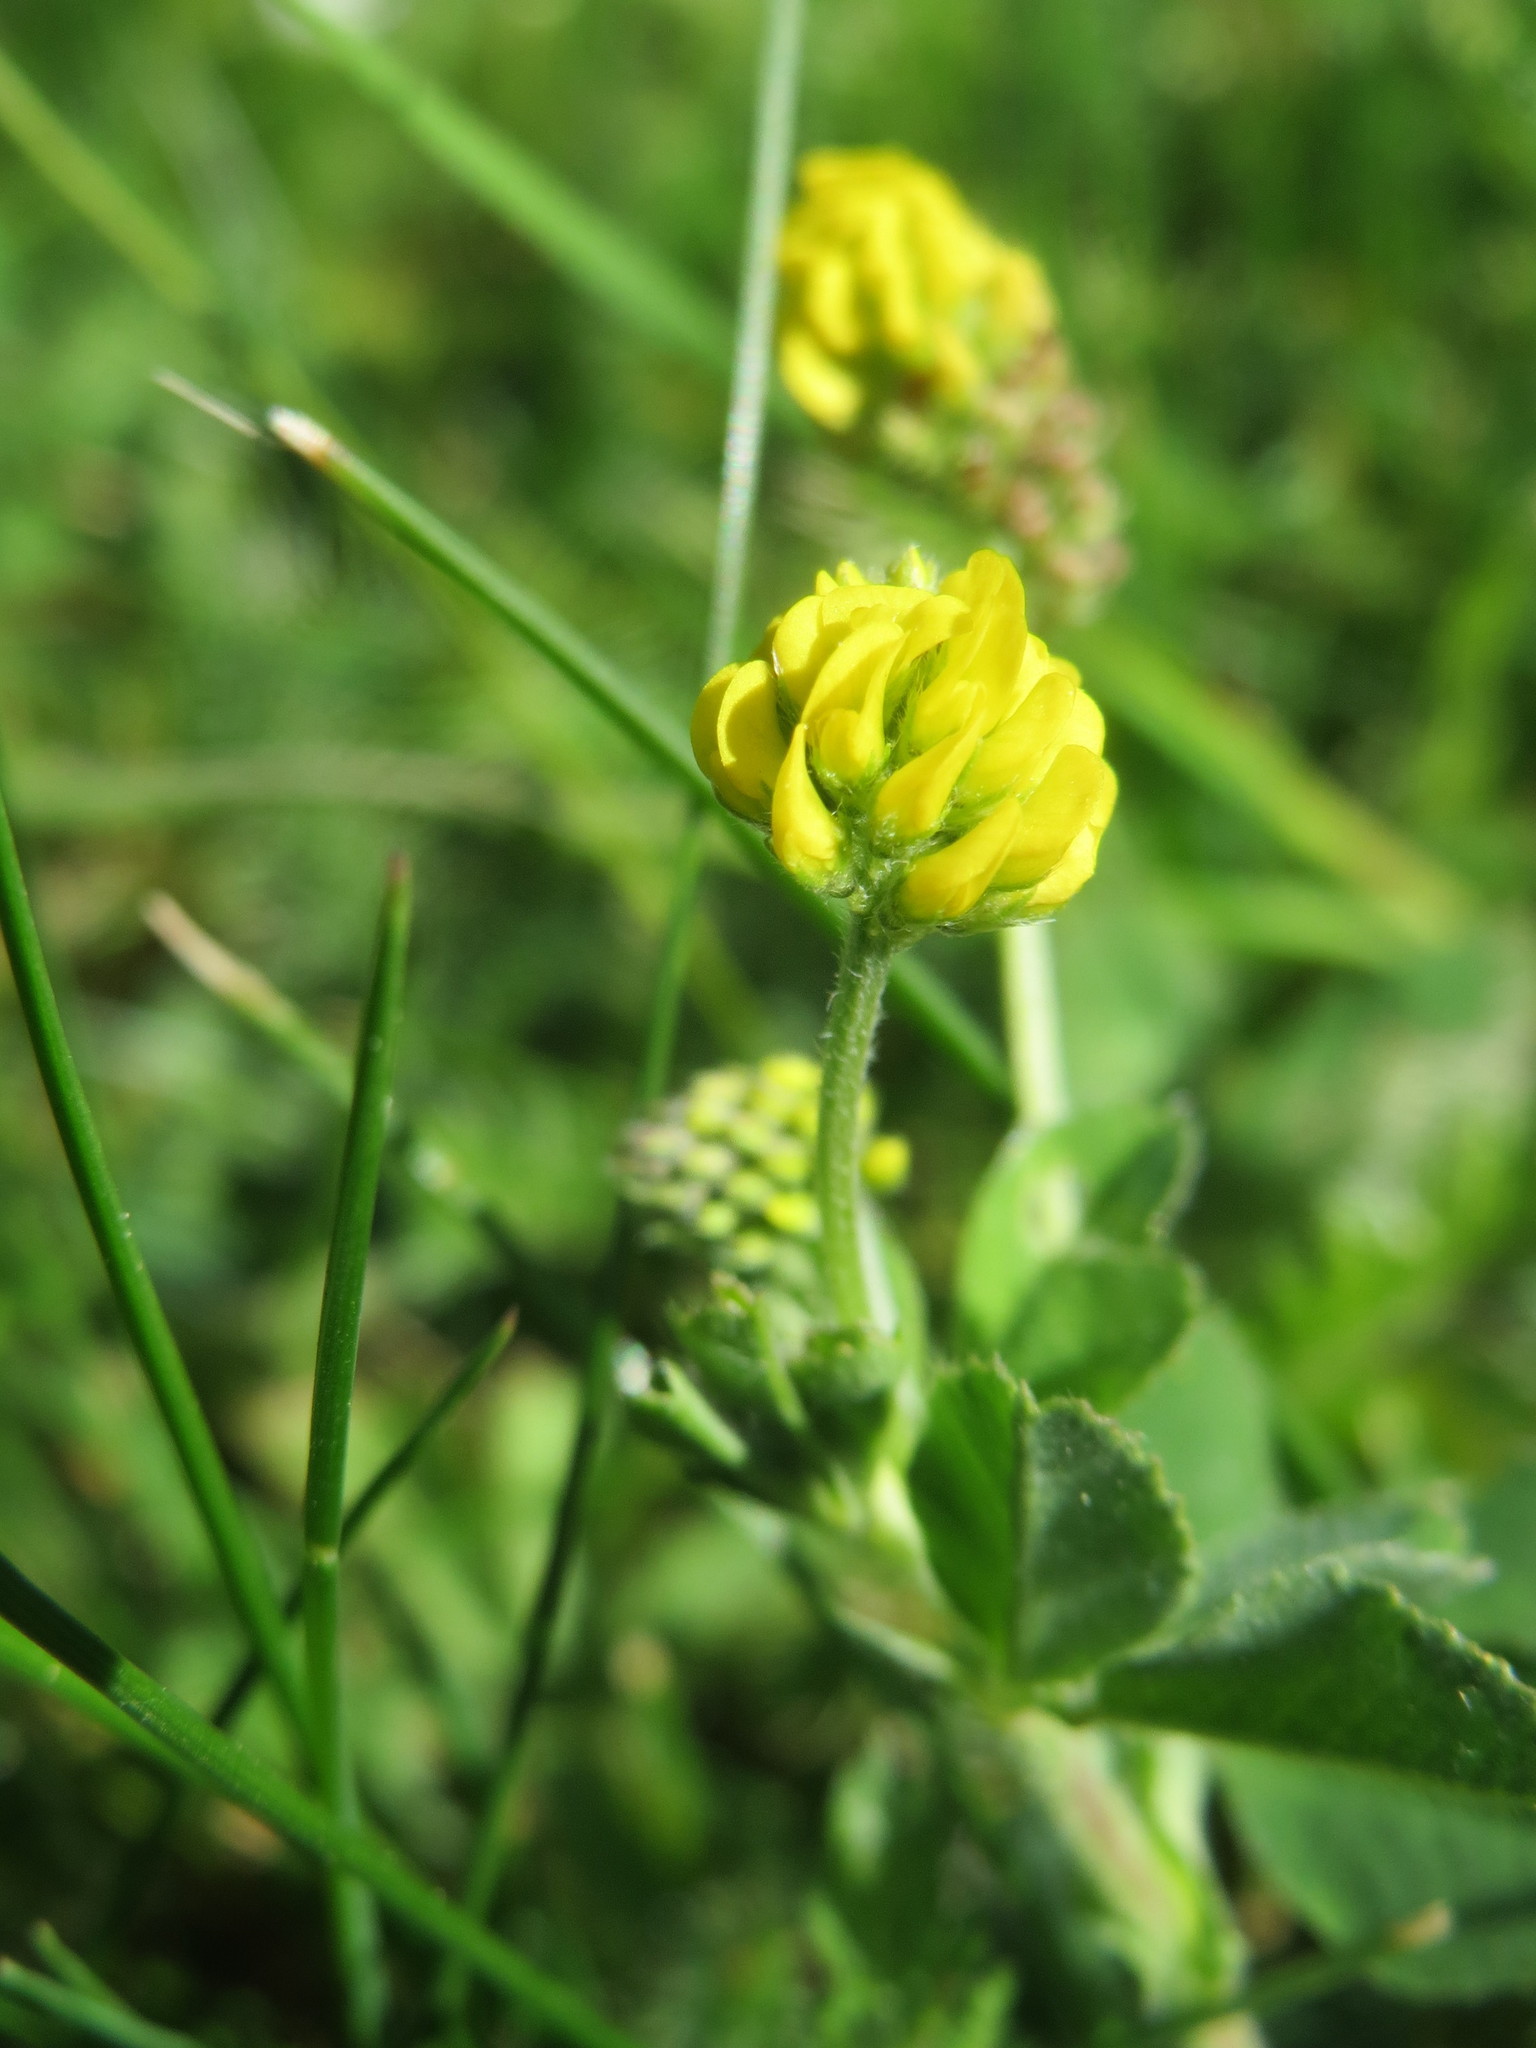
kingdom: Plantae
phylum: Tracheophyta
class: Magnoliopsida
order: Fabales
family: Fabaceae
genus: Medicago
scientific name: Medicago lupulina
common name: Black medick
